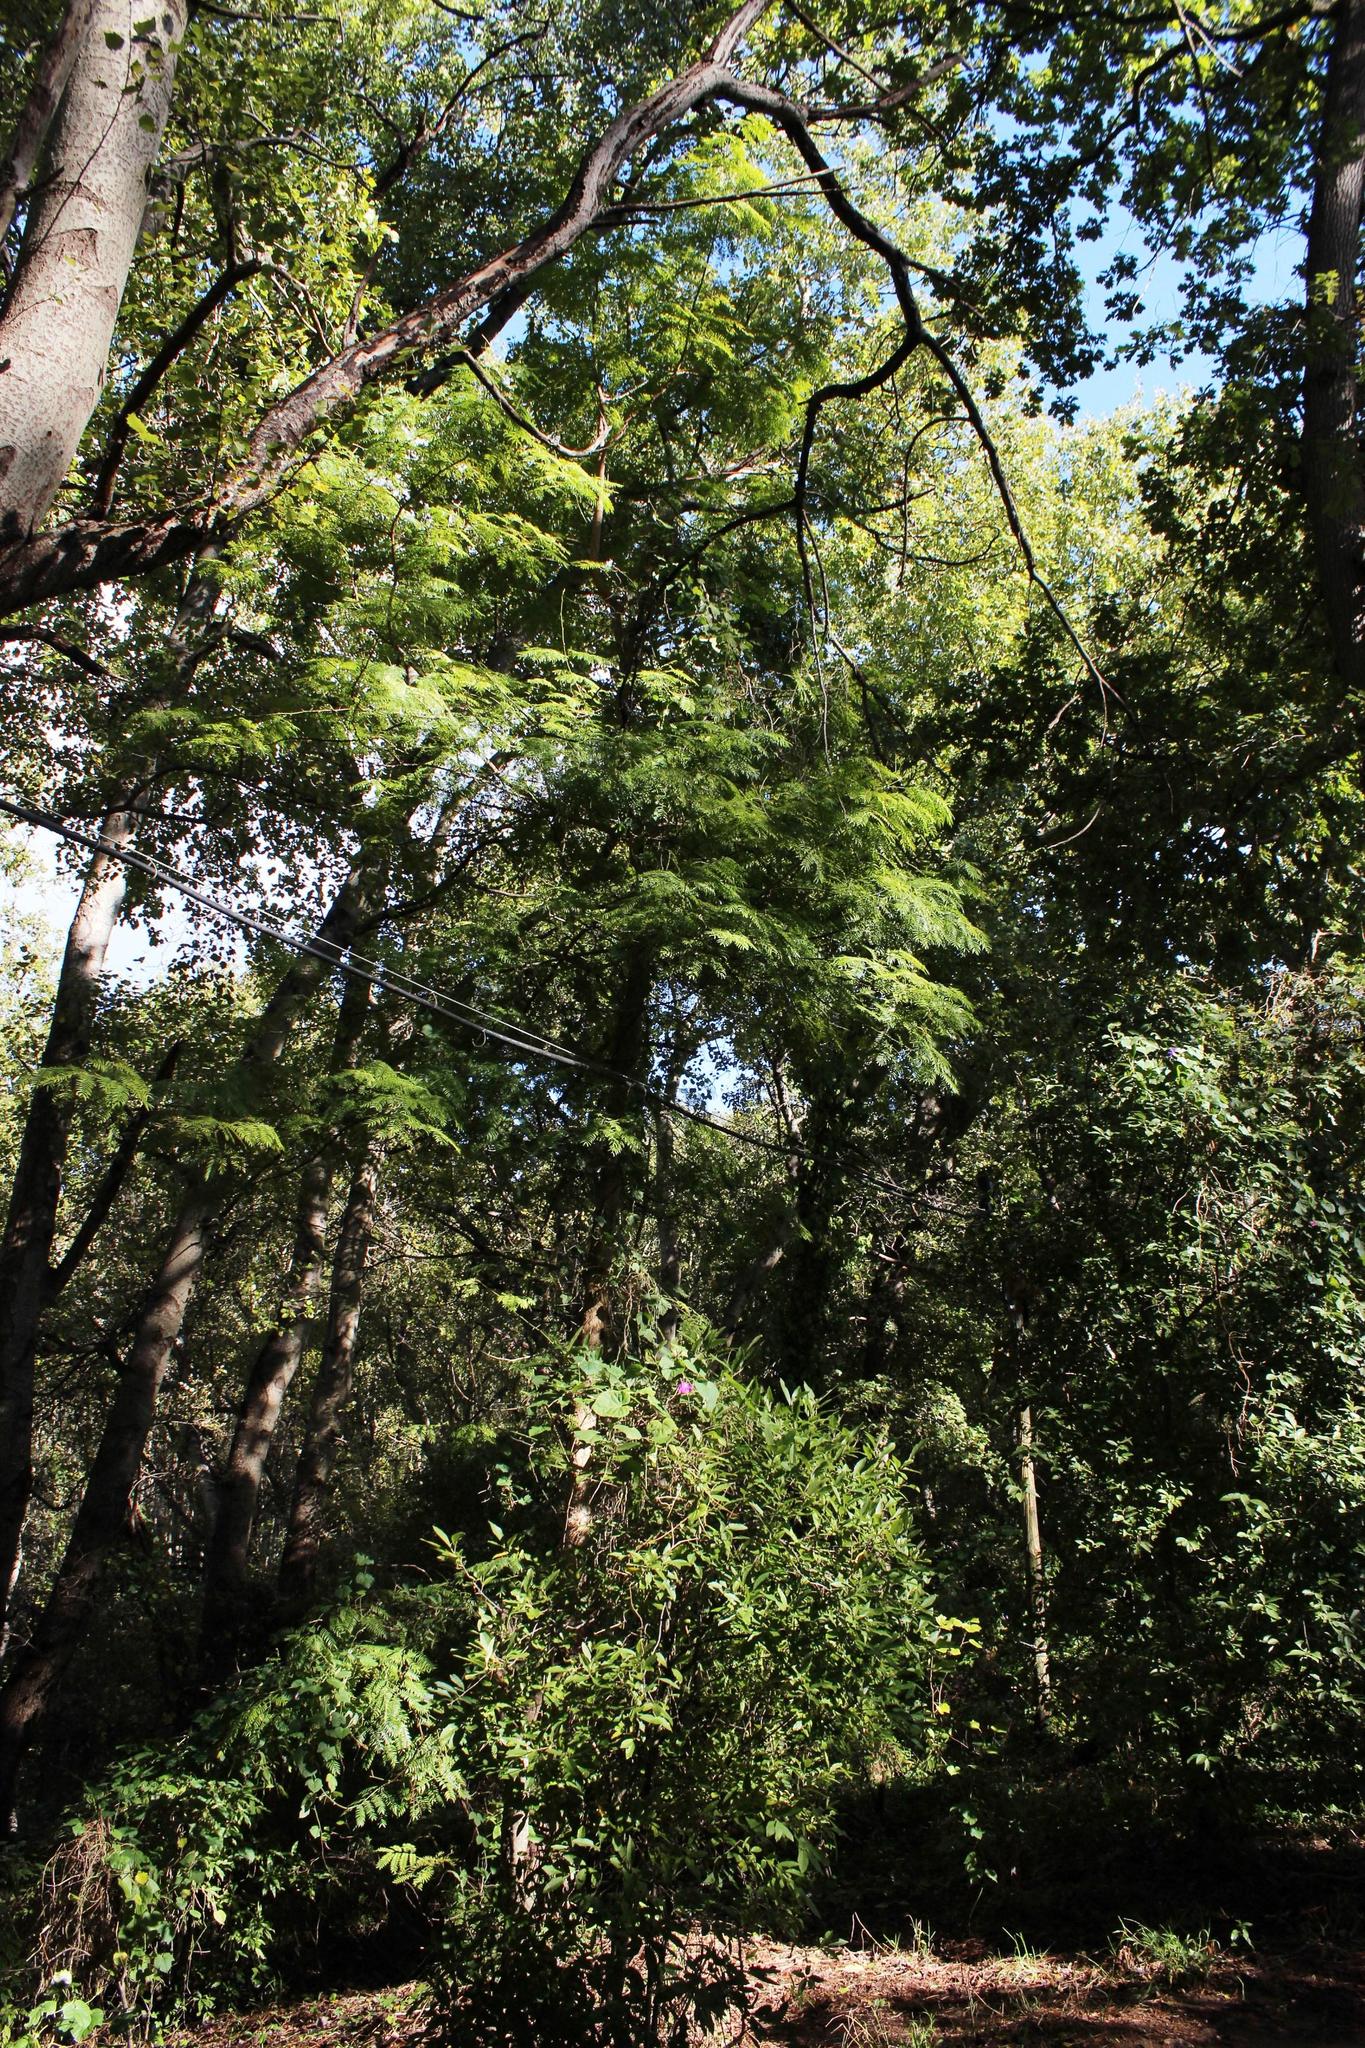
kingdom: Plantae
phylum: Tracheophyta
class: Magnoliopsida
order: Fabales
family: Fabaceae
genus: Robinia
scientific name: Robinia pseudoacacia
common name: Black locust
